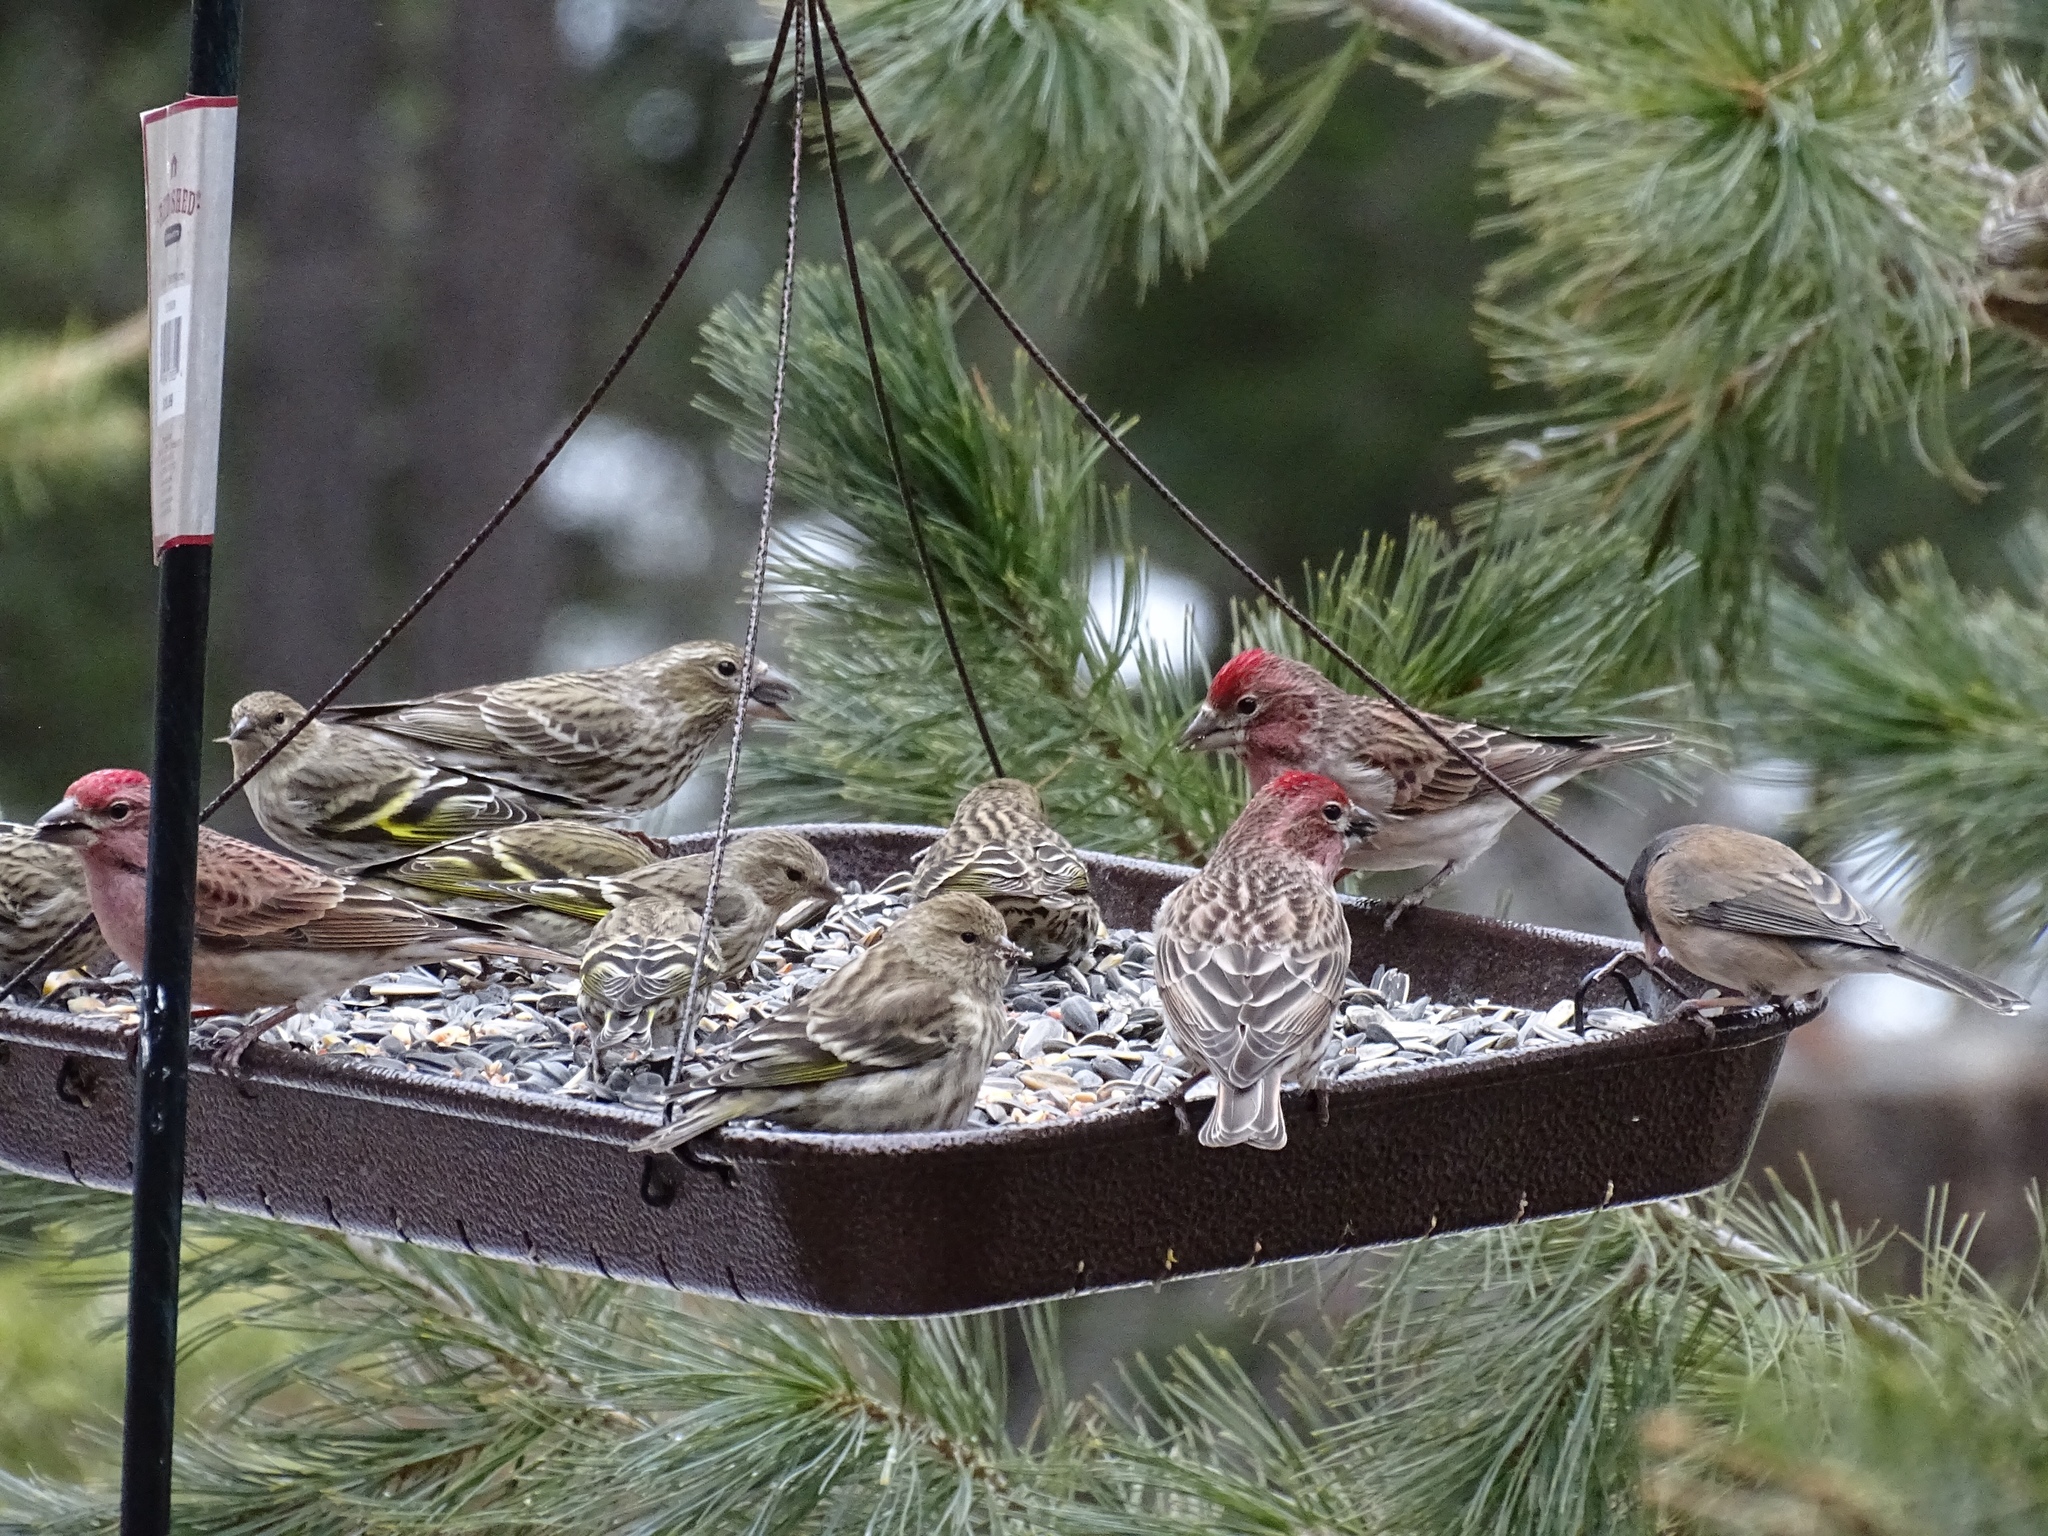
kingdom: Animalia
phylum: Chordata
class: Aves
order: Passeriformes
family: Fringillidae
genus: Haemorhous
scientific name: Haemorhous cassinii
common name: Cassin's finch
